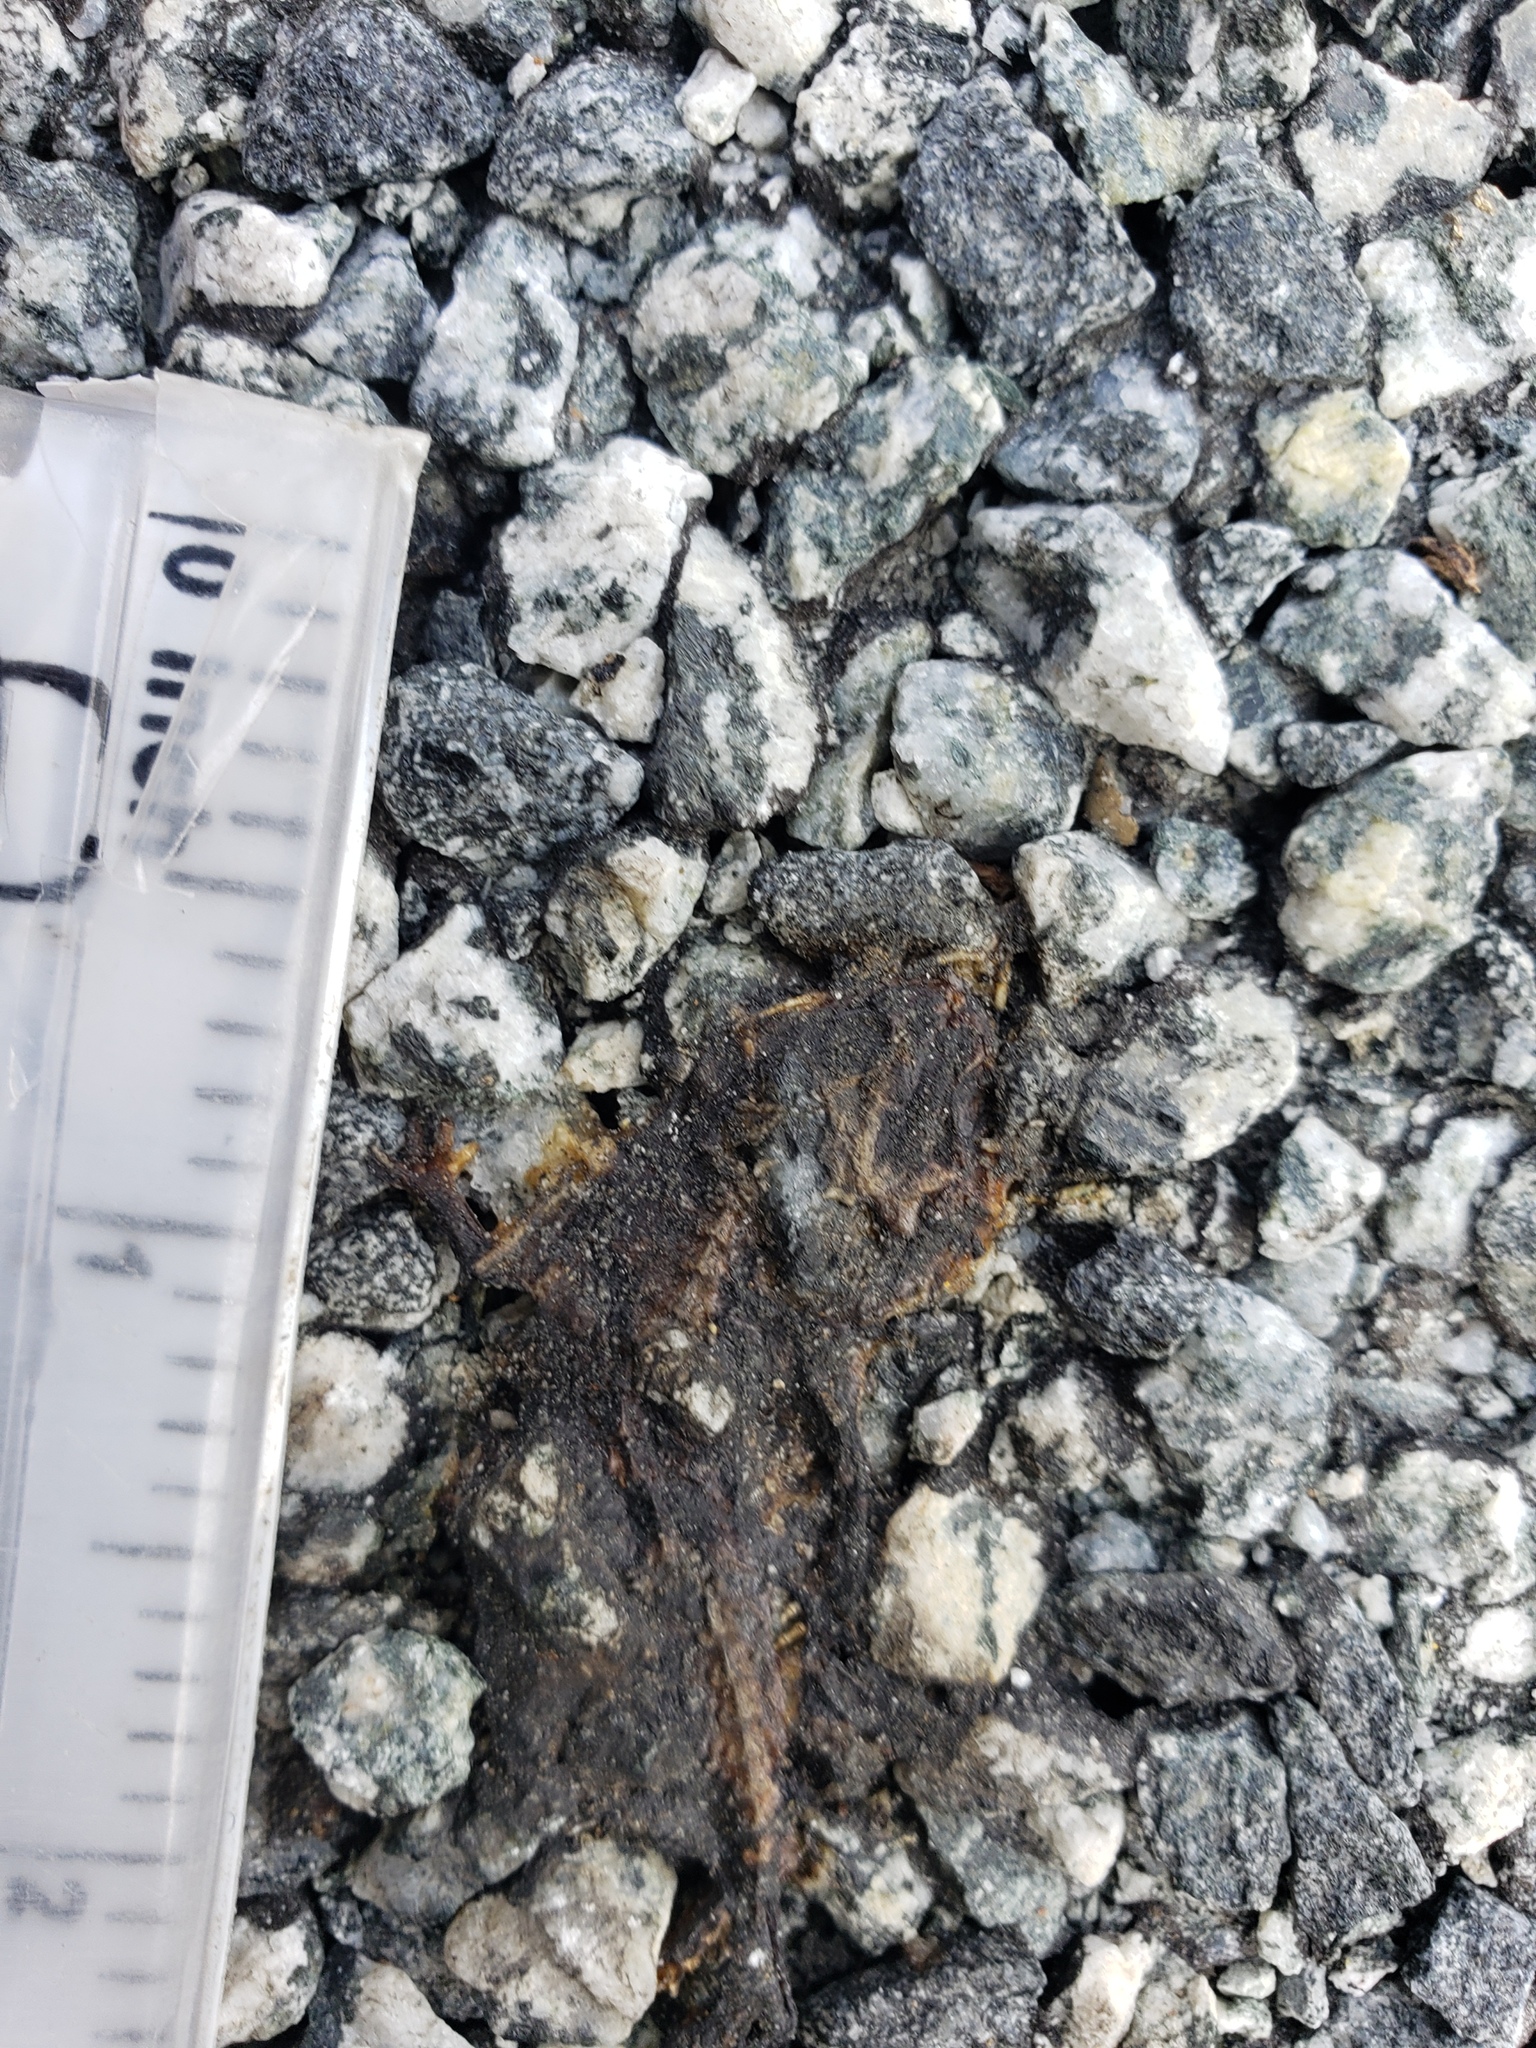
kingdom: Animalia
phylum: Chordata
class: Amphibia
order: Caudata
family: Salamandridae
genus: Taricha
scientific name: Taricha
